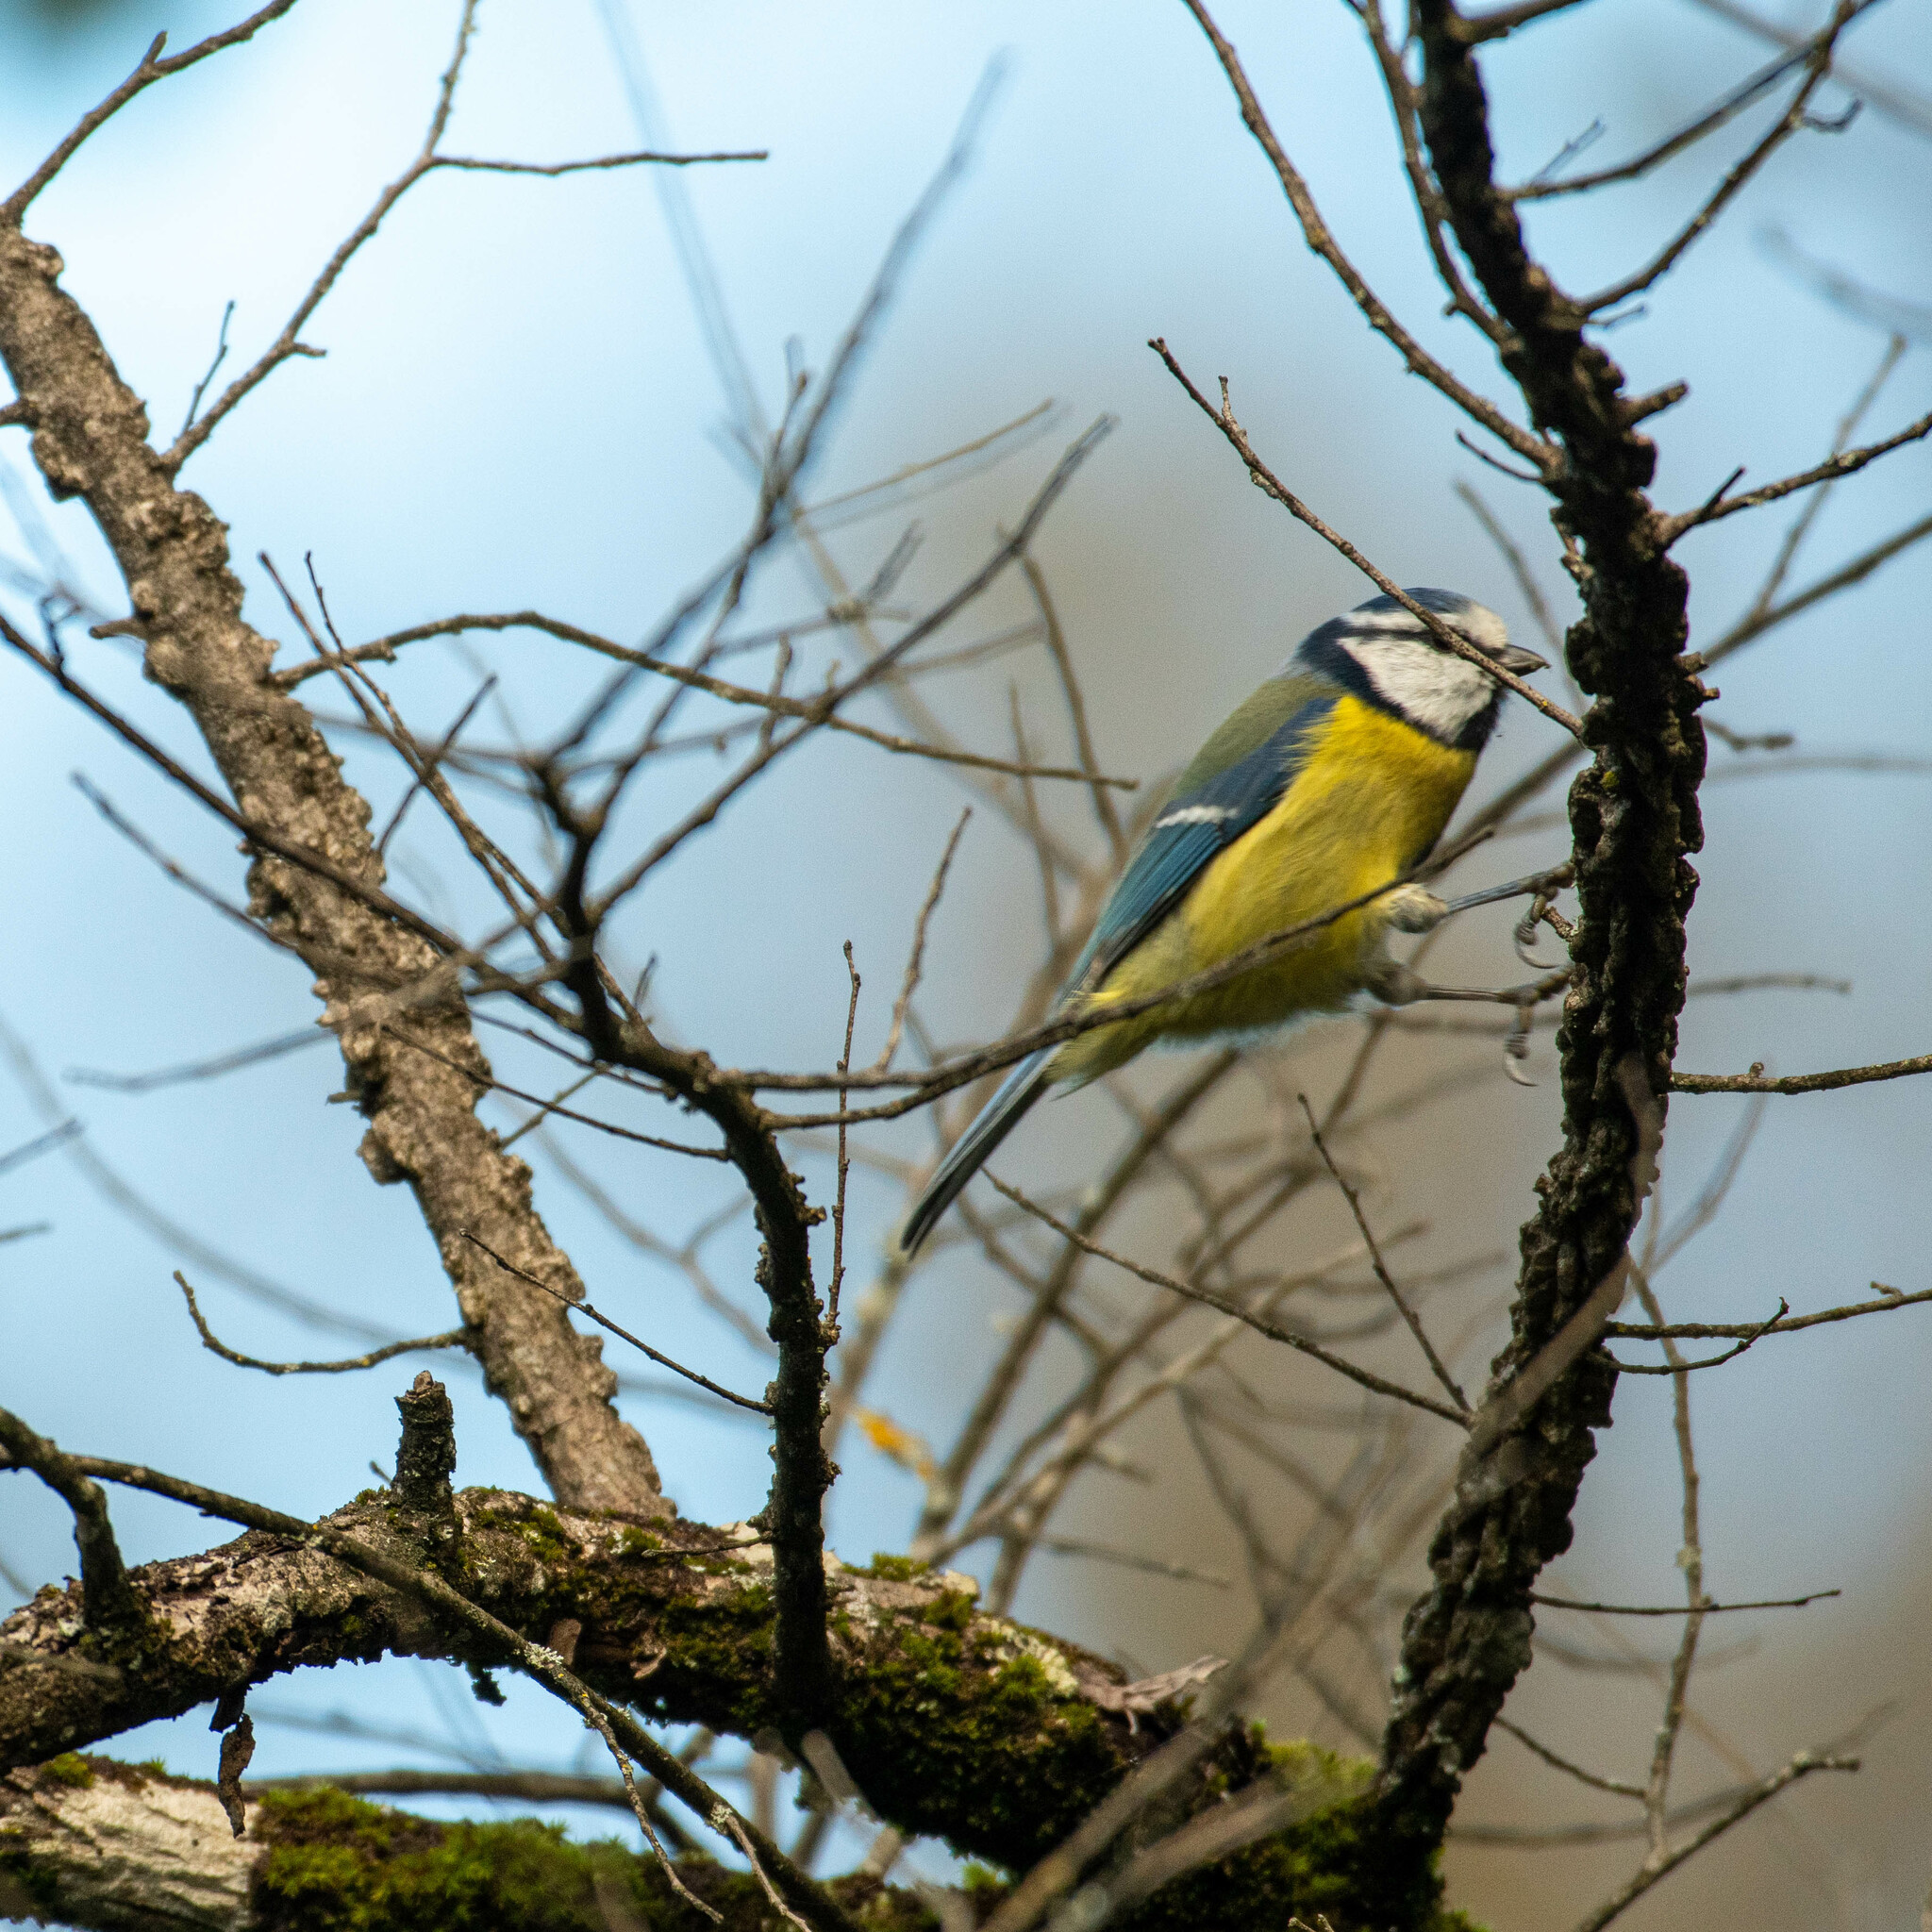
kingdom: Animalia
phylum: Chordata
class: Aves
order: Passeriformes
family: Paridae
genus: Cyanistes
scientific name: Cyanistes caeruleus
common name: Eurasian blue tit
